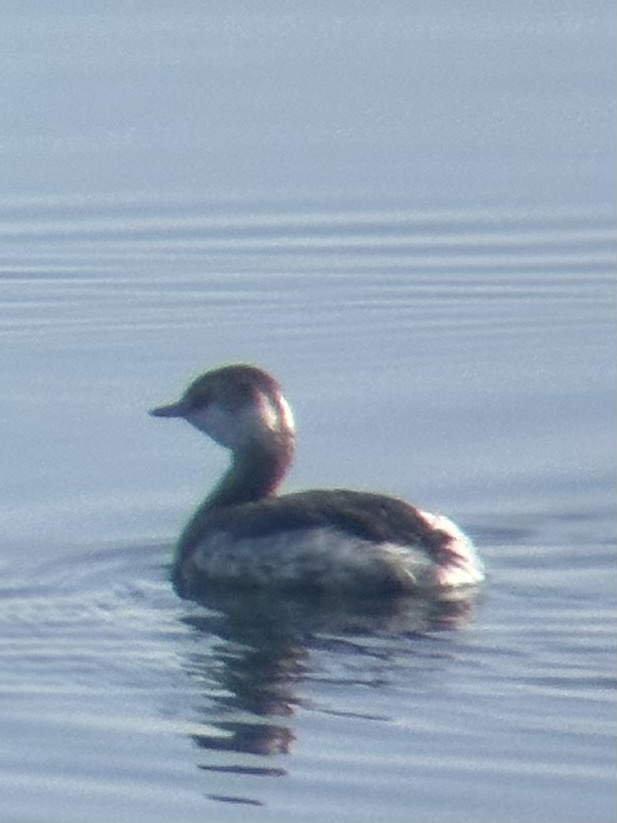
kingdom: Animalia
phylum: Chordata
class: Aves
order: Podicipediformes
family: Podicipedidae
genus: Podiceps
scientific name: Podiceps auritus
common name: Horned grebe
